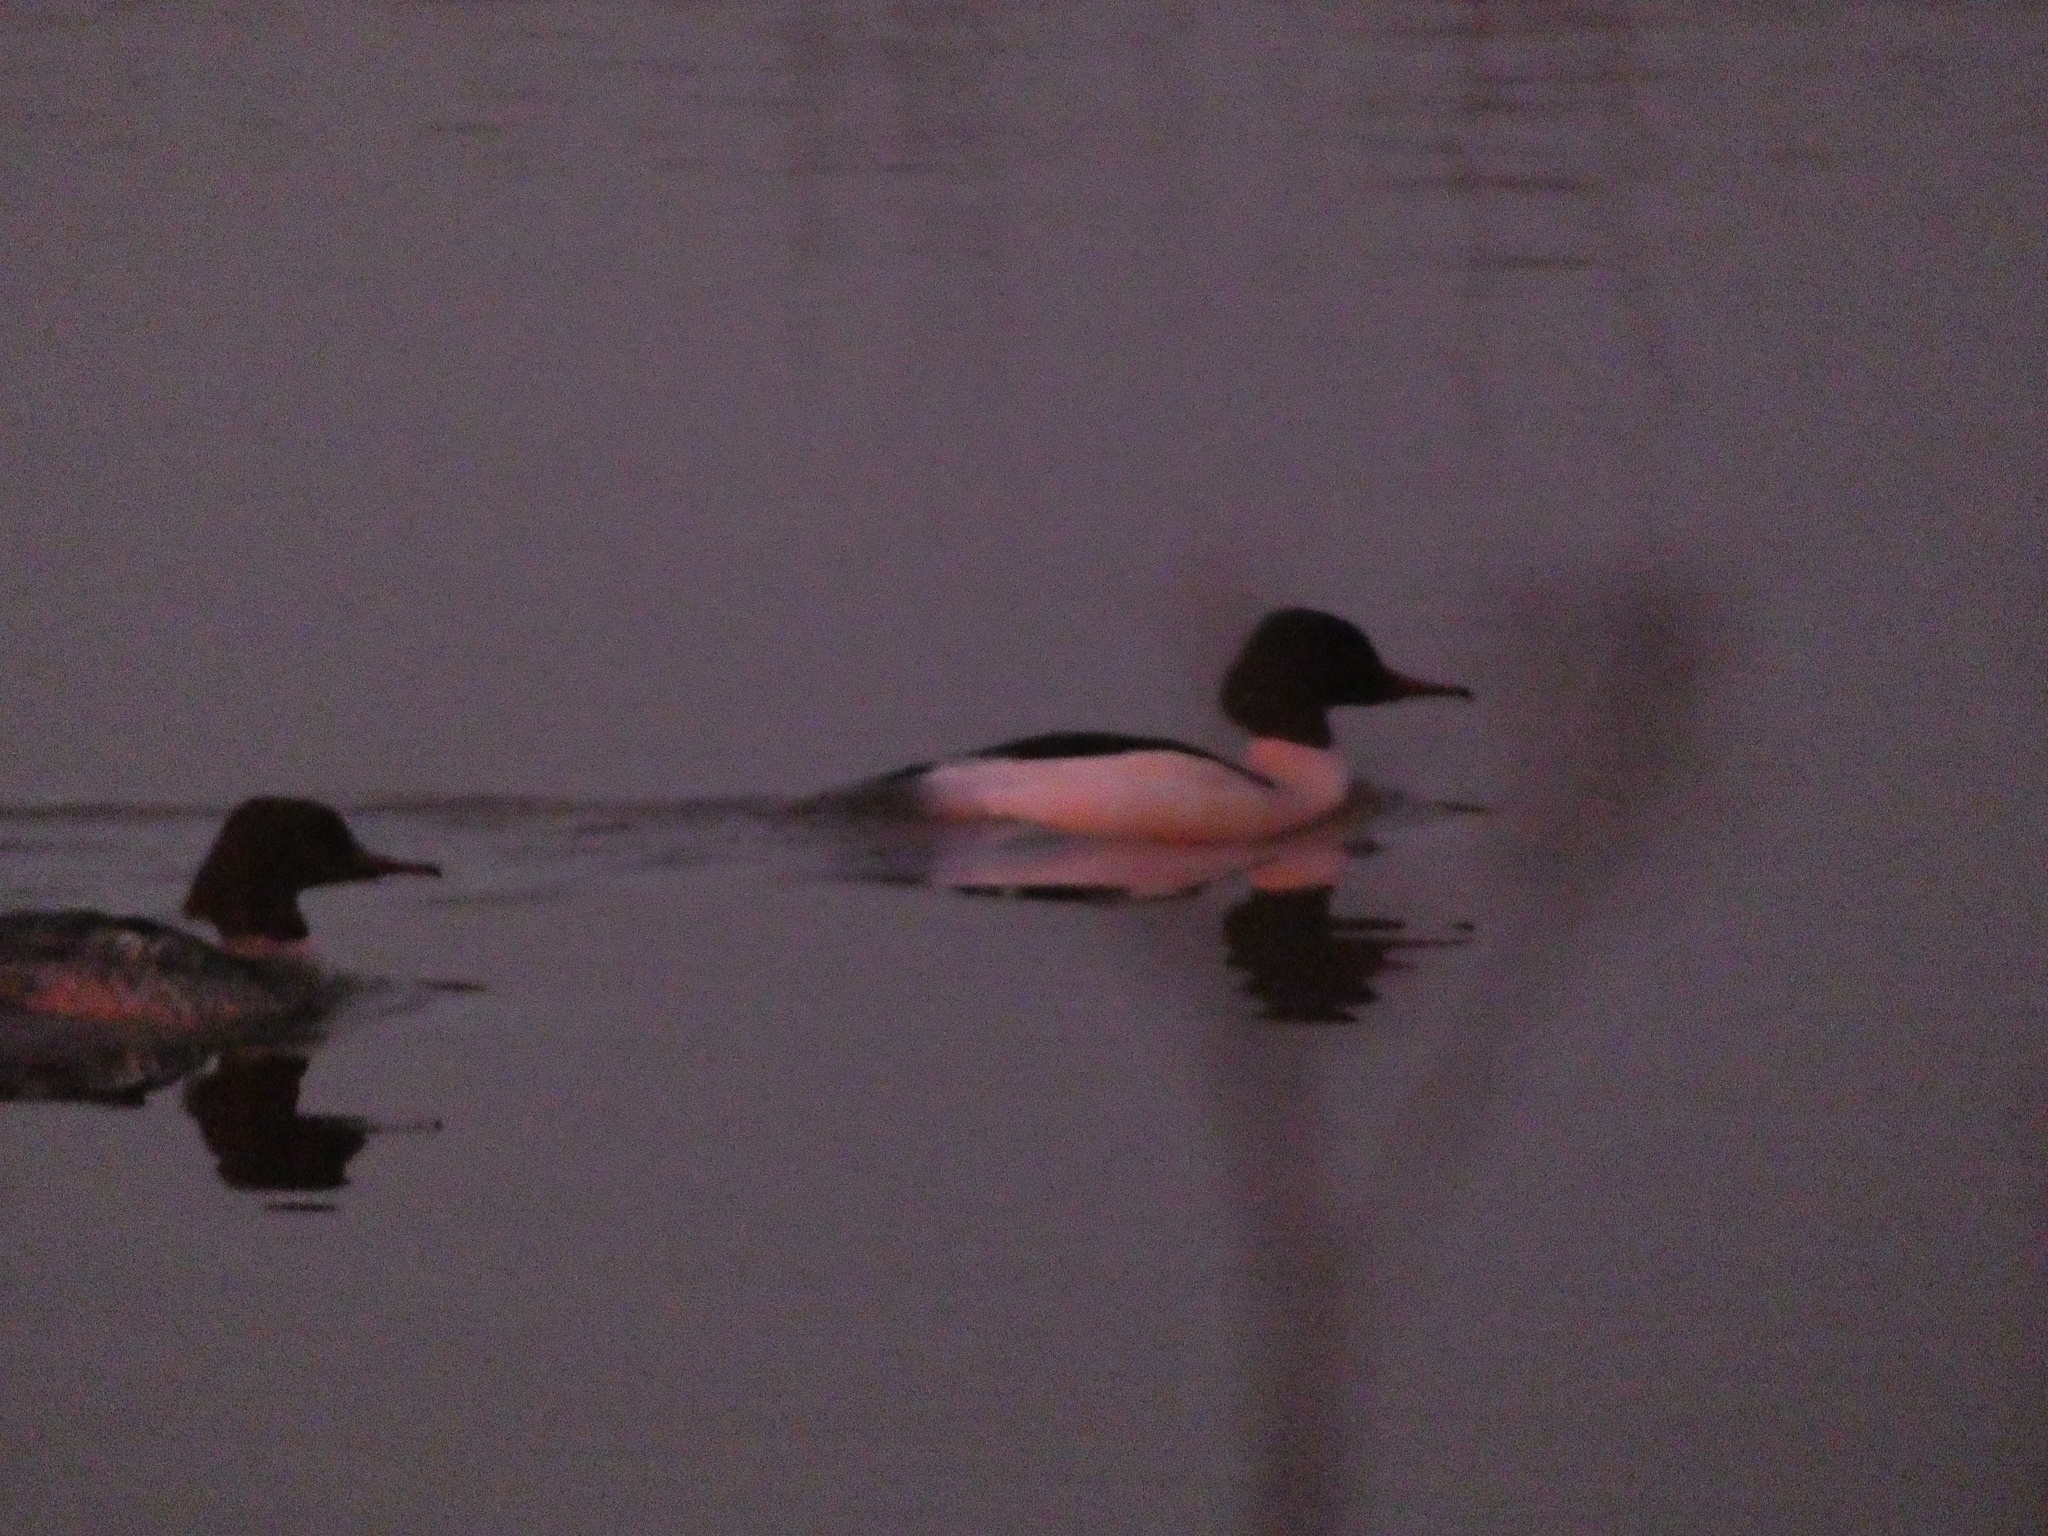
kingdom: Animalia
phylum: Chordata
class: Aves
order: Anseriformes
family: Anatidae
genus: Mergus
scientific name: Mergus merganser
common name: Common merganser
